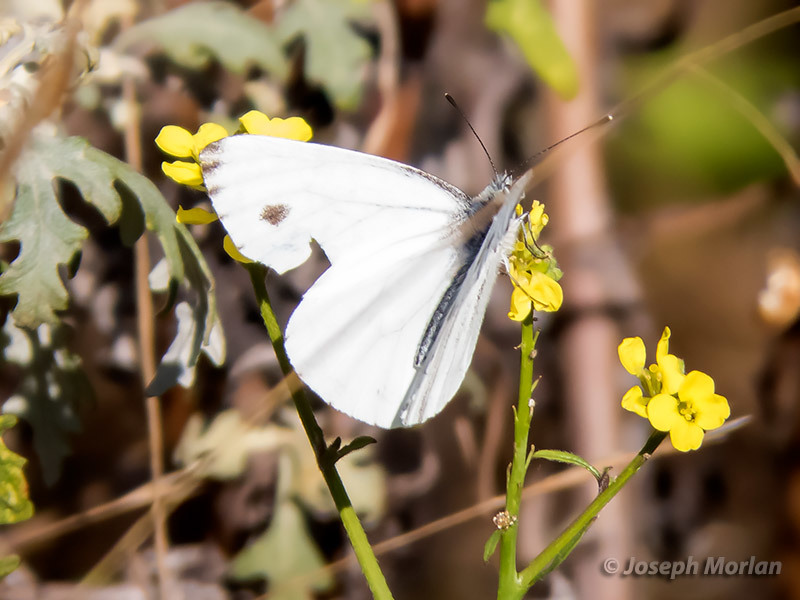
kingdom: Animalia
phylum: Arthropoda
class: Insecta
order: Lepidoptera
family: Pieridae
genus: Pieris
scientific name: Pieris rapae
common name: Small white
